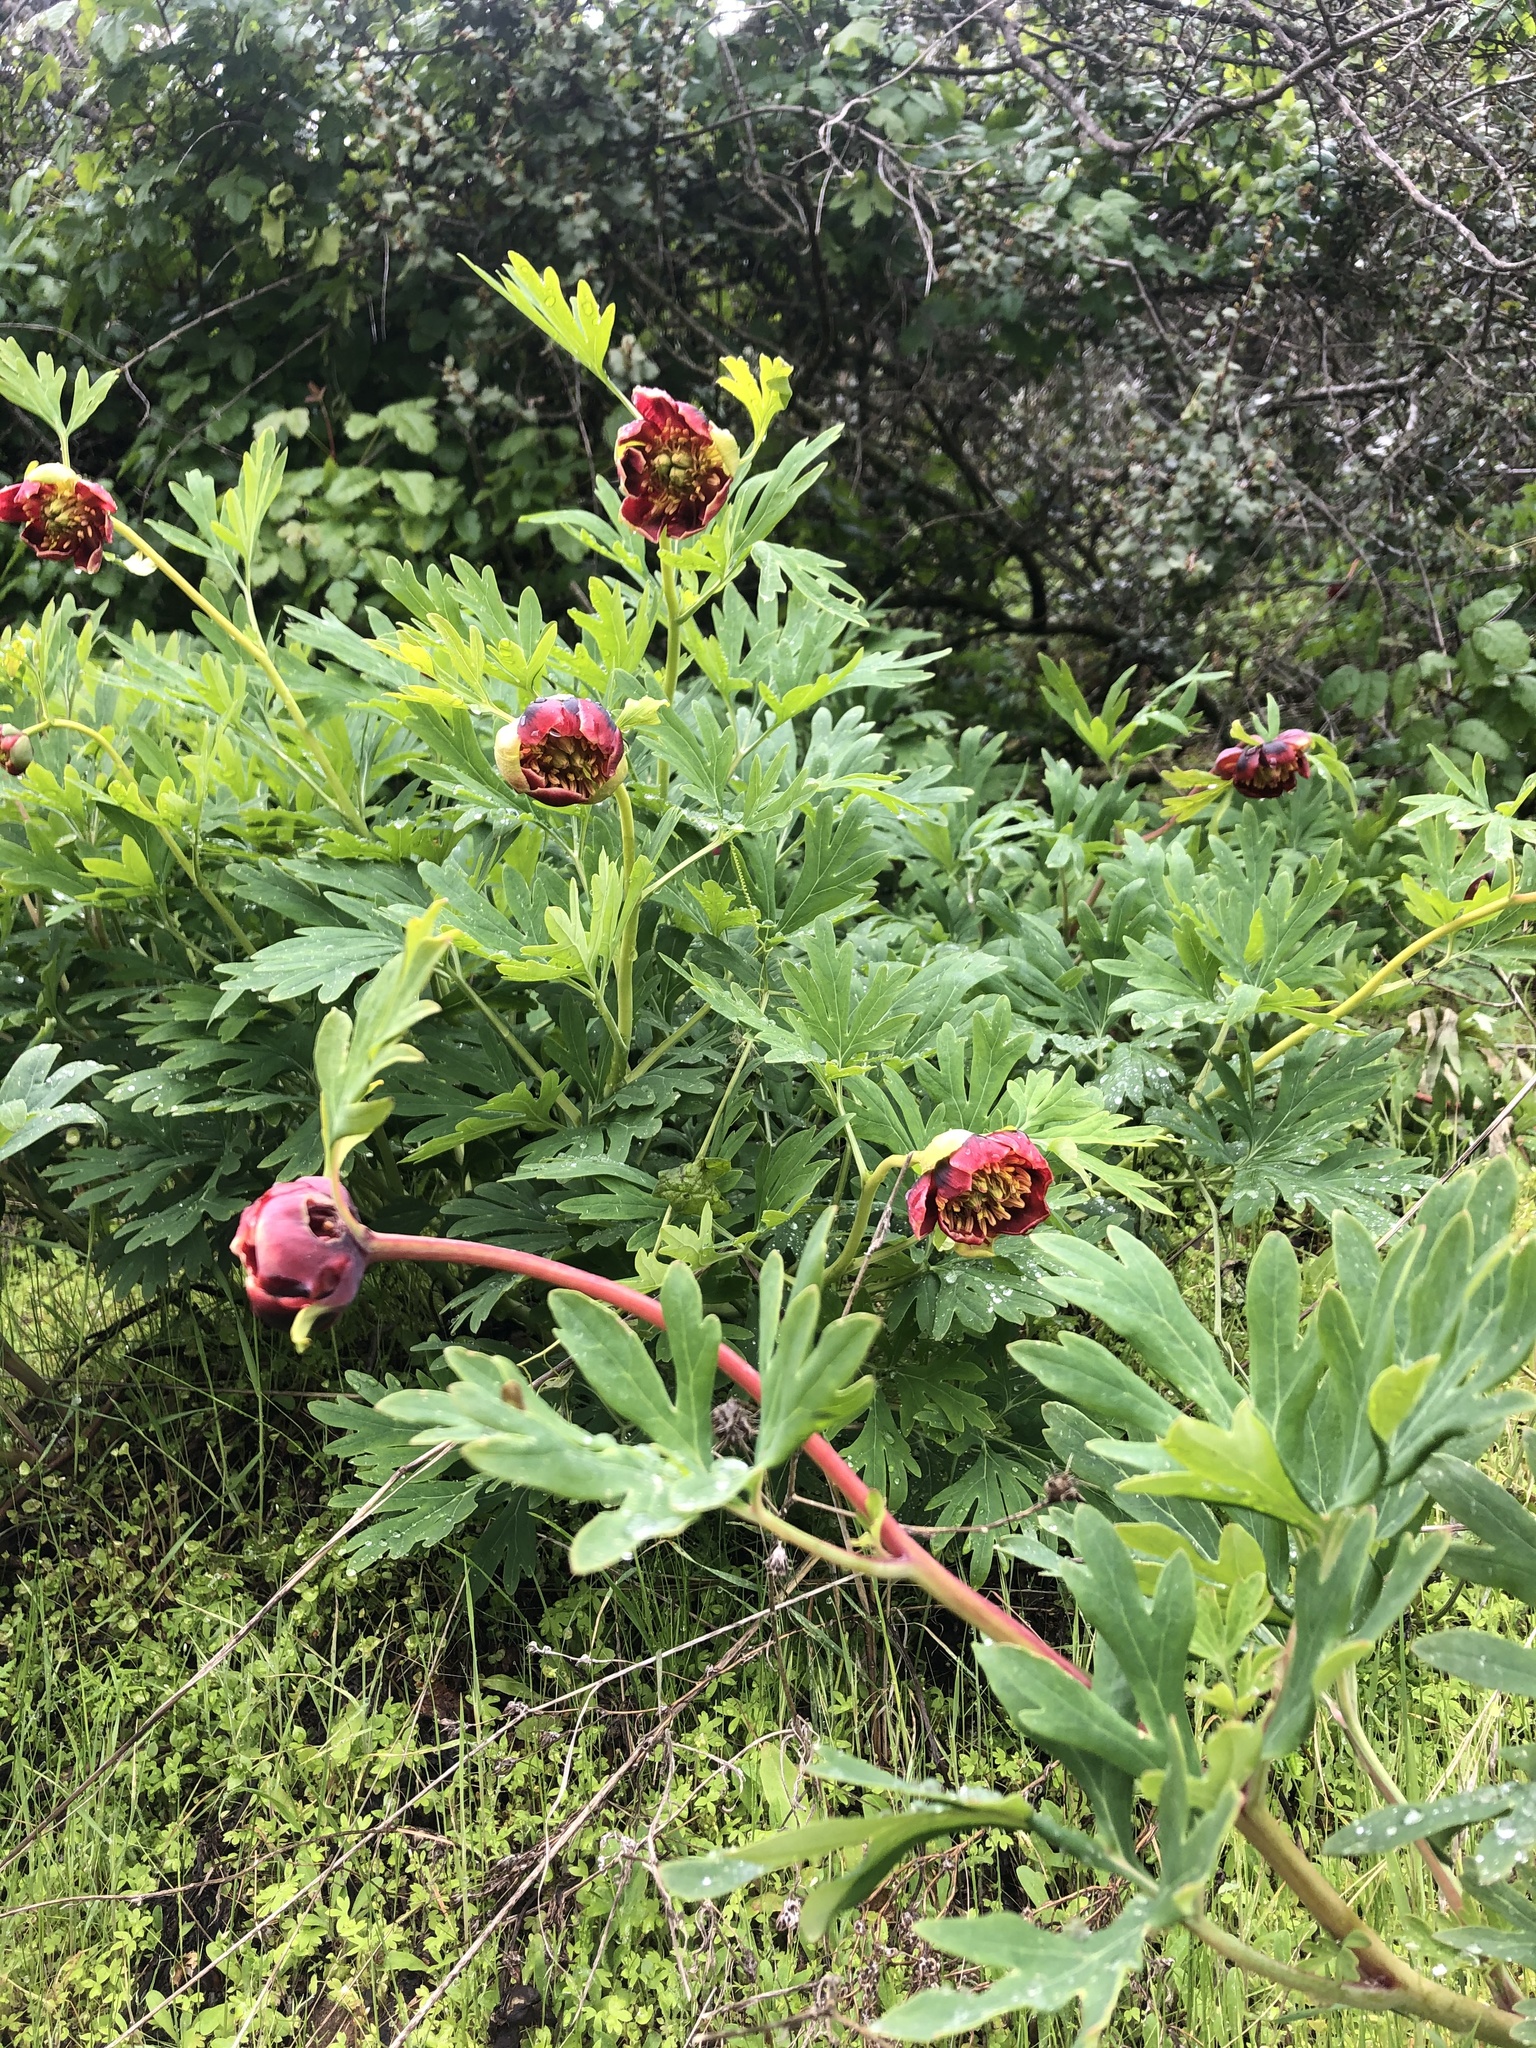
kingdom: Plantae
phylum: Tracheophyta
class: Magnoliopsida
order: Saxifragales
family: Paeoniaceae
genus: Paeonia
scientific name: Paeonia californica
